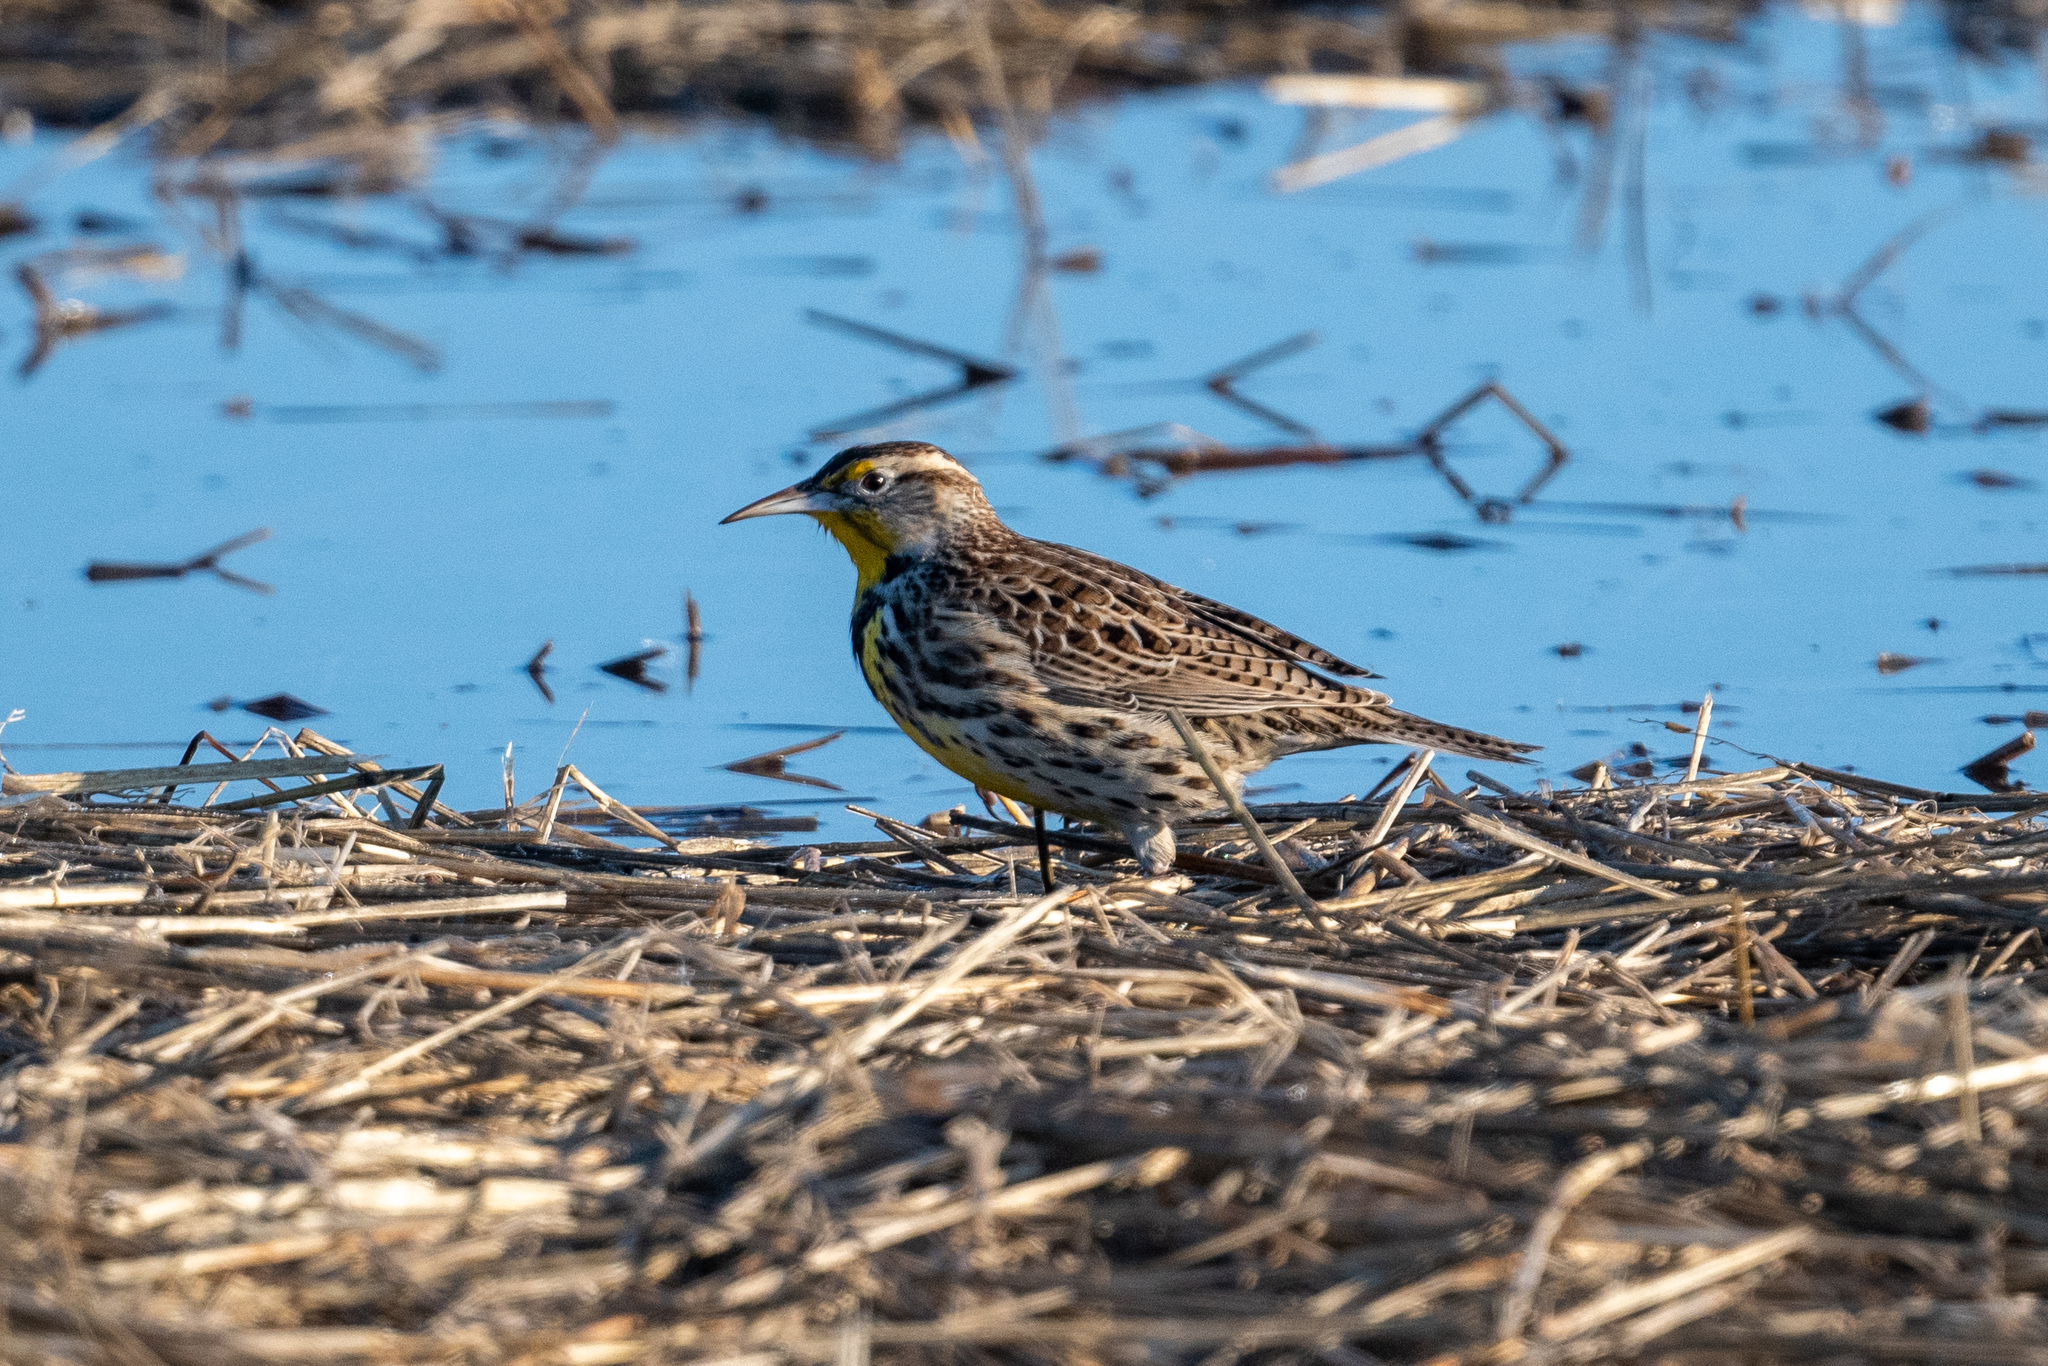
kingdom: Animalia
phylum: Chordata
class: Aves
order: Passeriformes
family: Icteridae
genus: Sturnella
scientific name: Sturnella neglecta
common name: Western meadowlark
